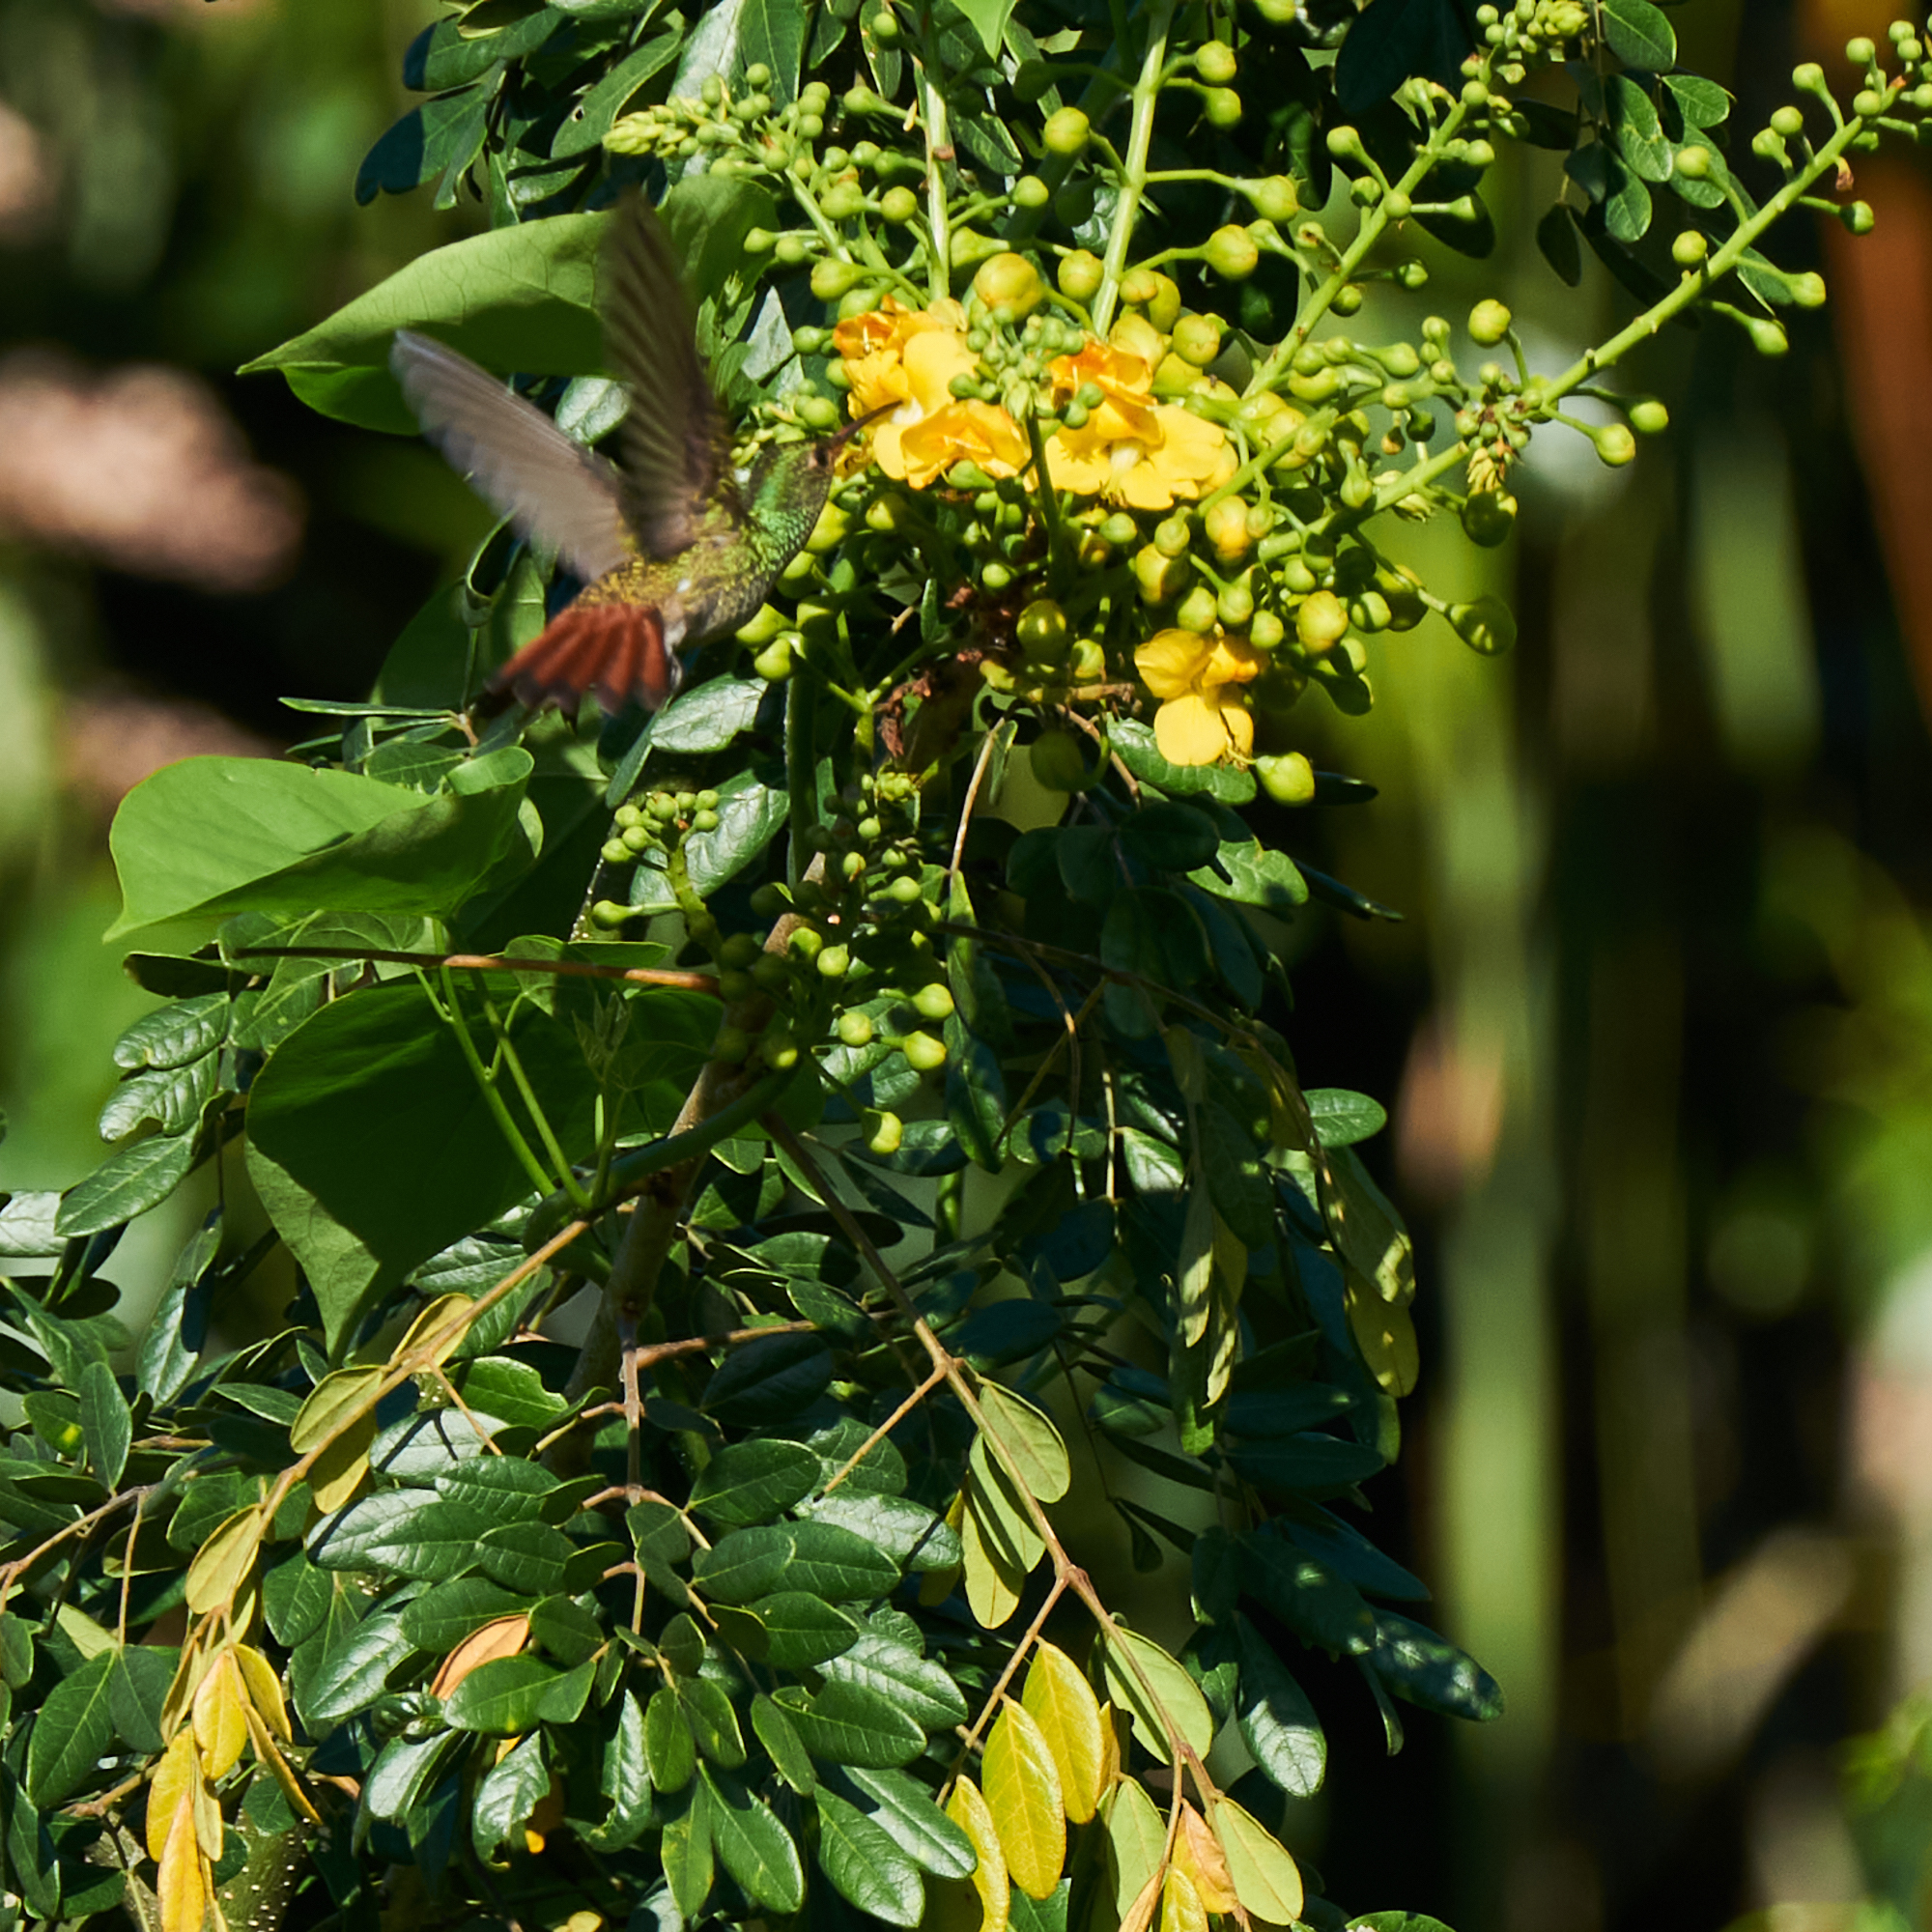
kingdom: Animalia
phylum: Chordata
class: Aves
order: Apodiformes
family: Trochilidae
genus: Amazilia
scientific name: Amazilia tzacatl
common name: Rufous-tailed hummingbird
